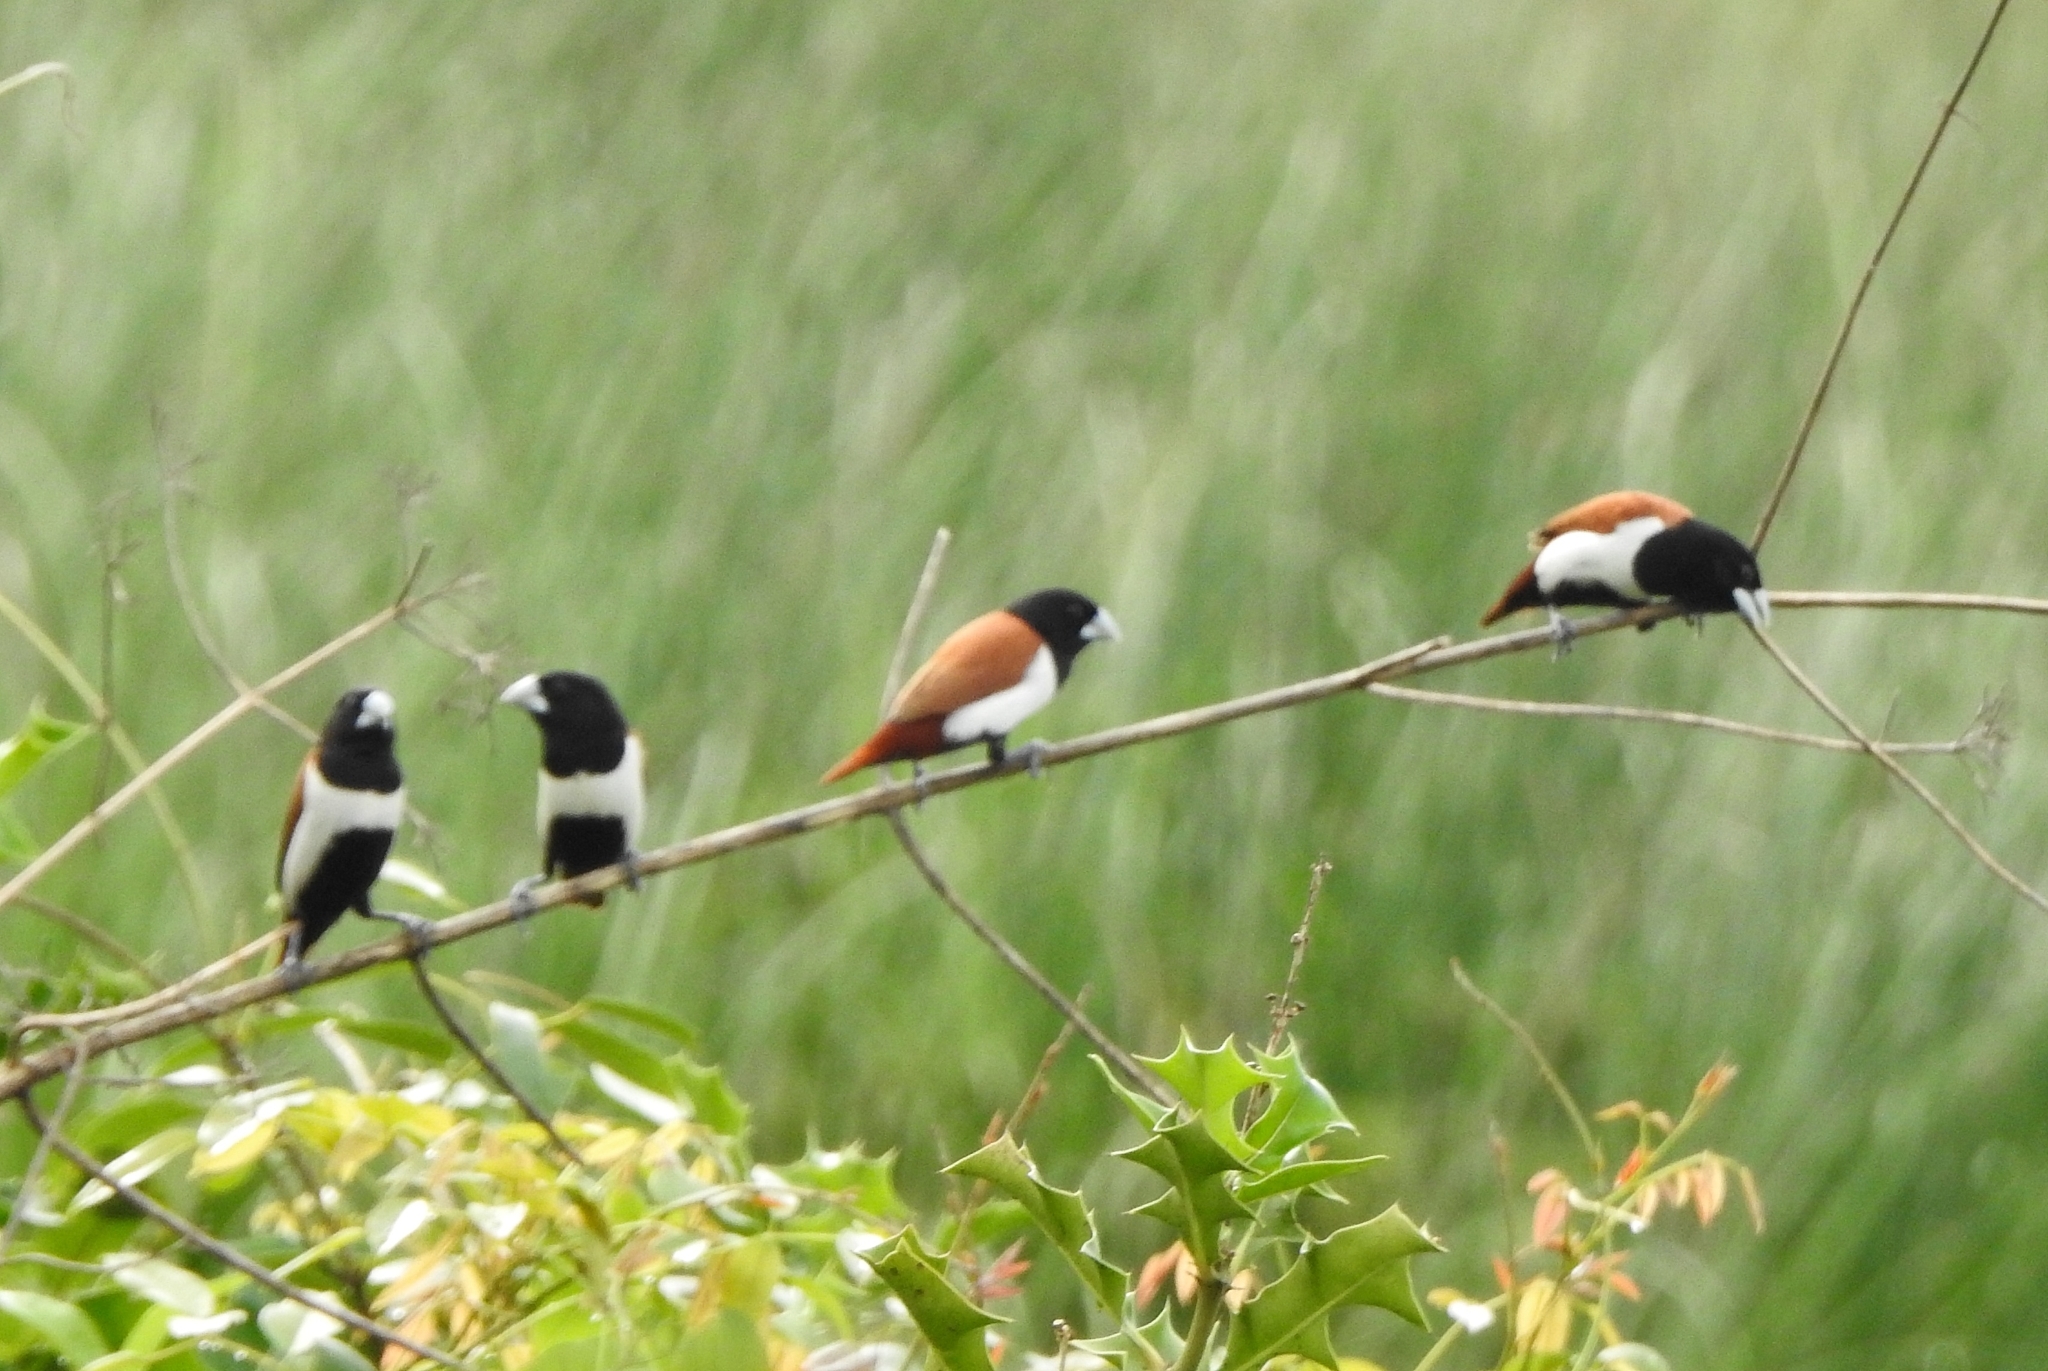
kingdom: Animalia
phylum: Chordata
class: Aves
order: Passeriformes
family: Estrildidae
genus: Lonchura
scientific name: Lonchura malacca
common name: Tricolored munia
